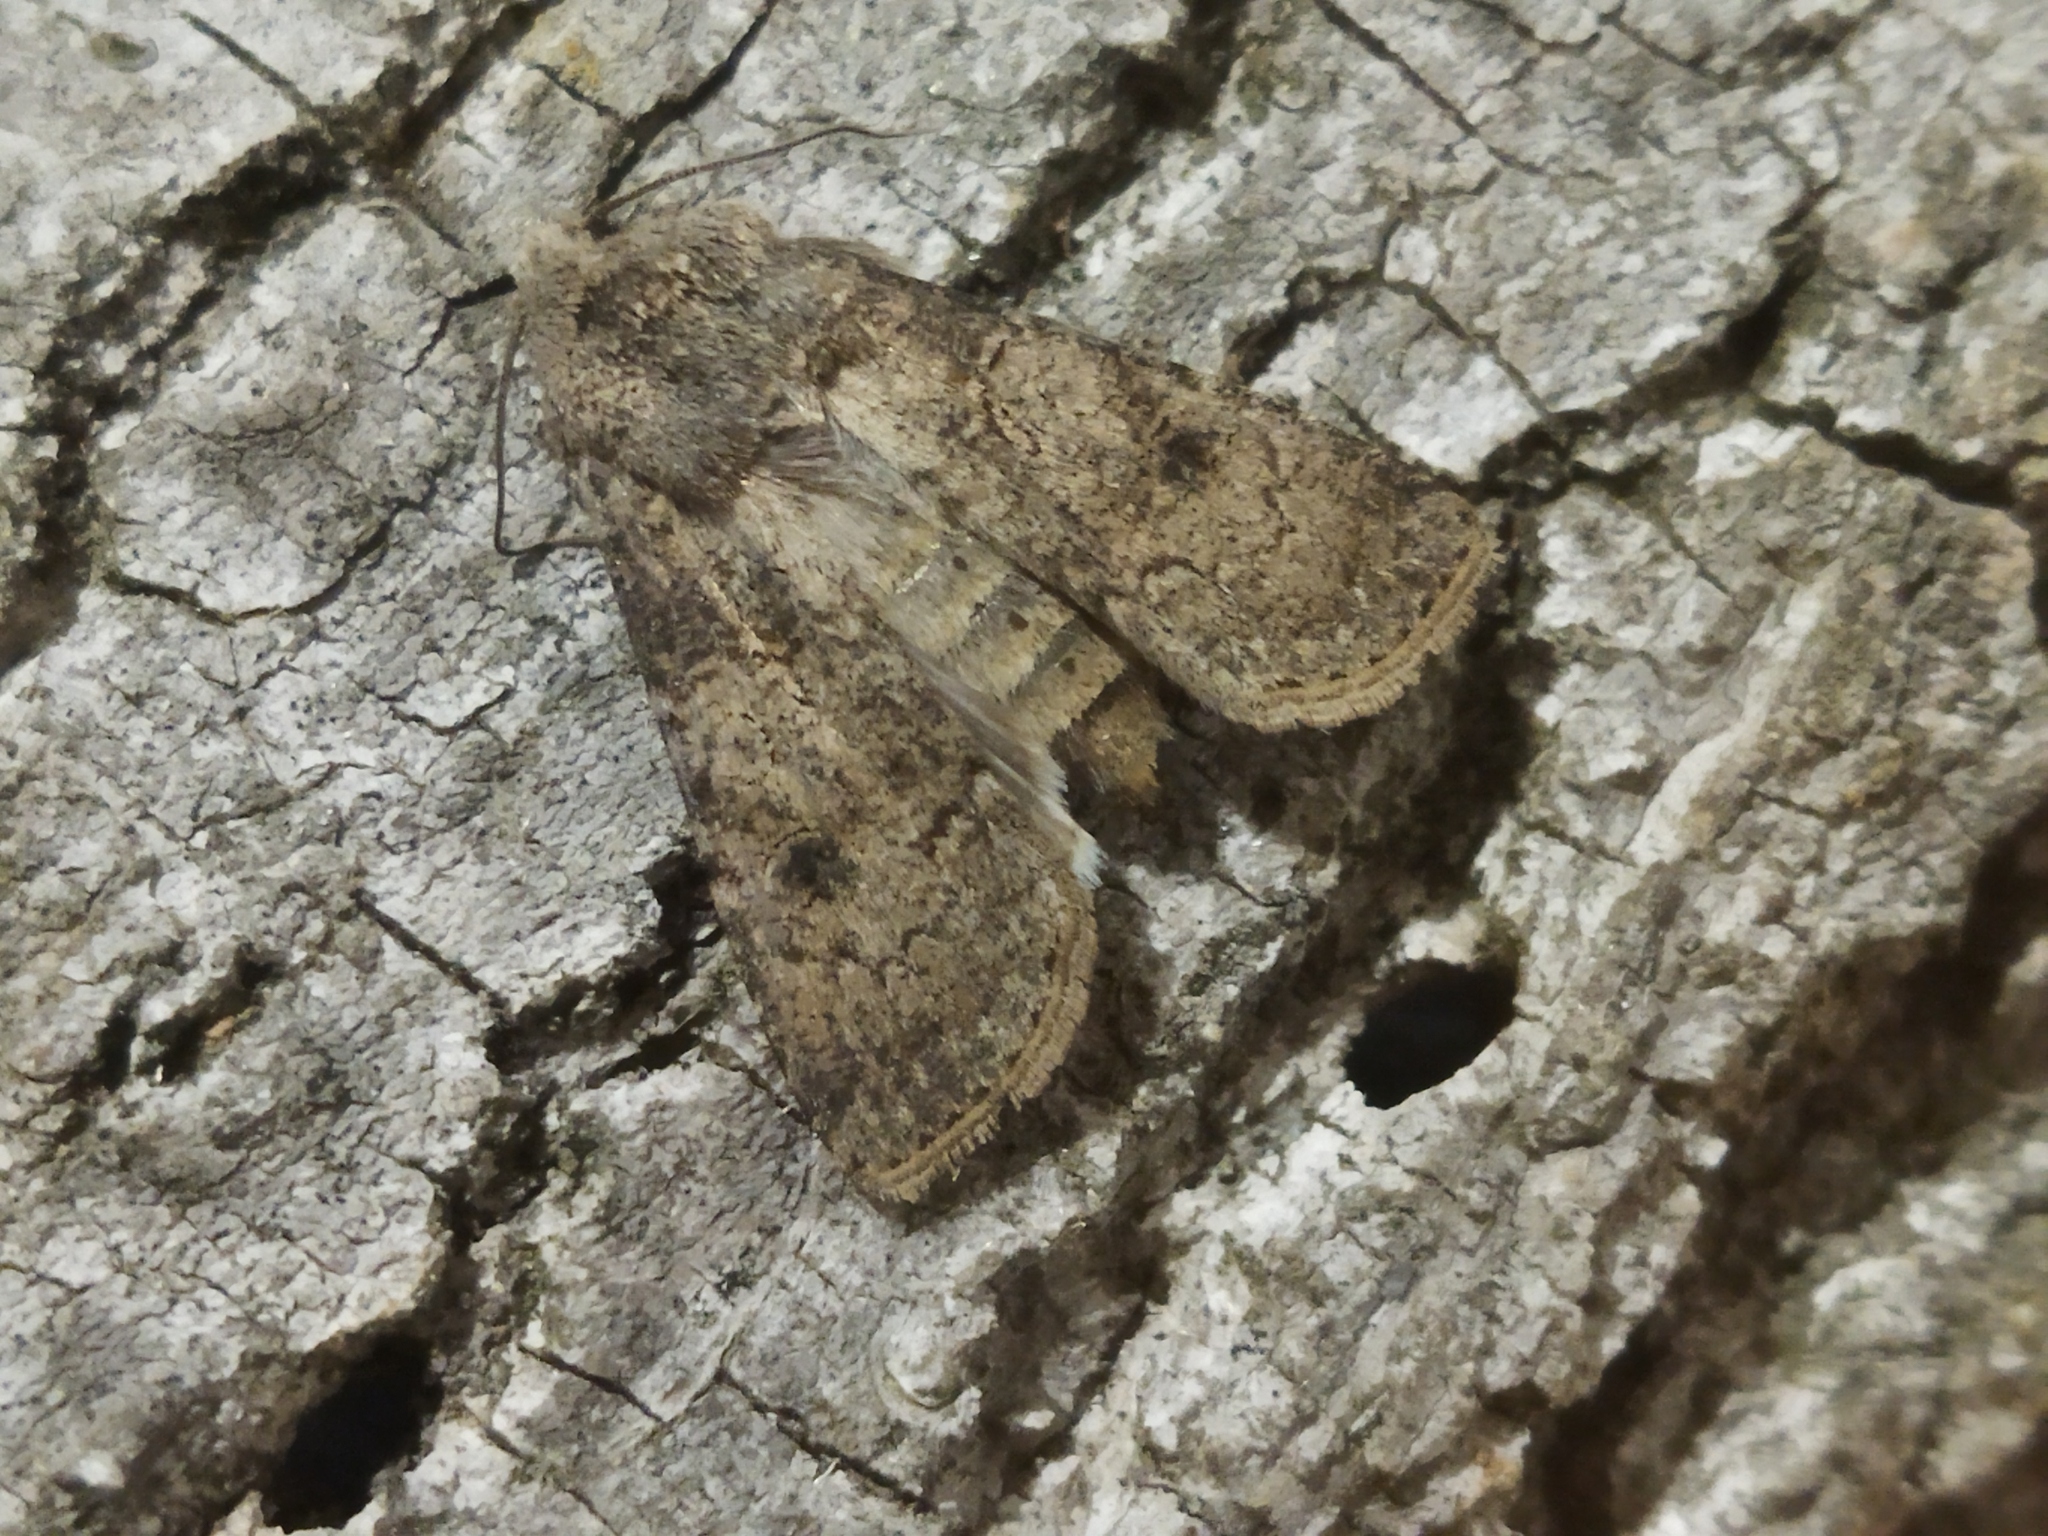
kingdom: Animalia
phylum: Arthropoda
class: Insecta
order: Lepidoptera
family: Noctuidae
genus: Agrotis
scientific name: Agrotis segetum
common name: Turnip moth
